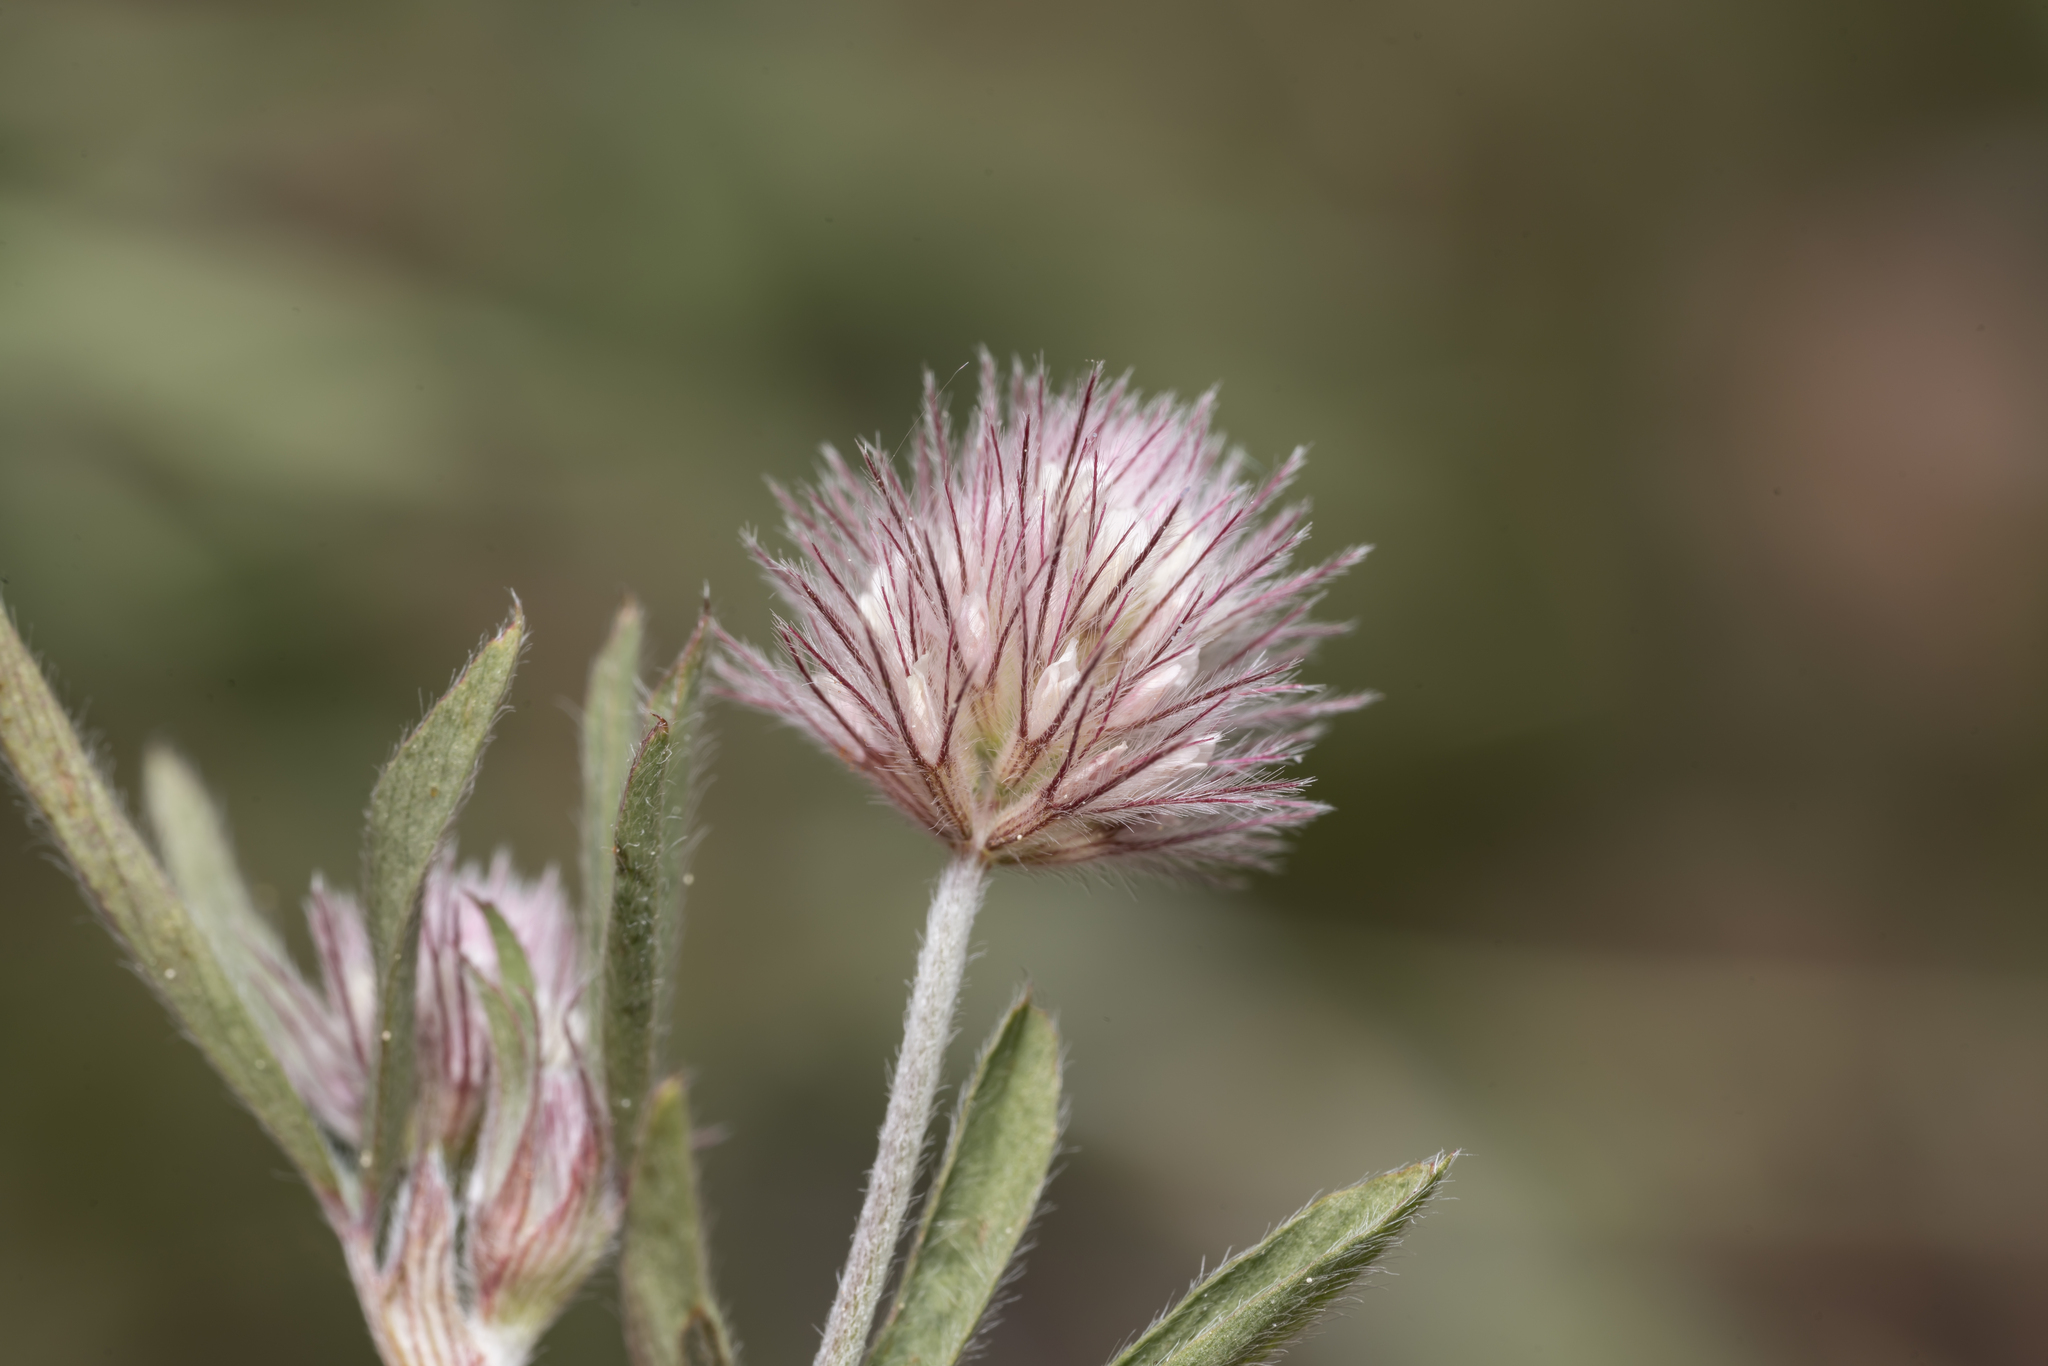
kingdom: Plantae
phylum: Tracheophyta
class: Magnoliopsida
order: Fabales
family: Fabaceae
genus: Trifolium
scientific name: Trifolium arvense
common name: Hare's-foot clover
